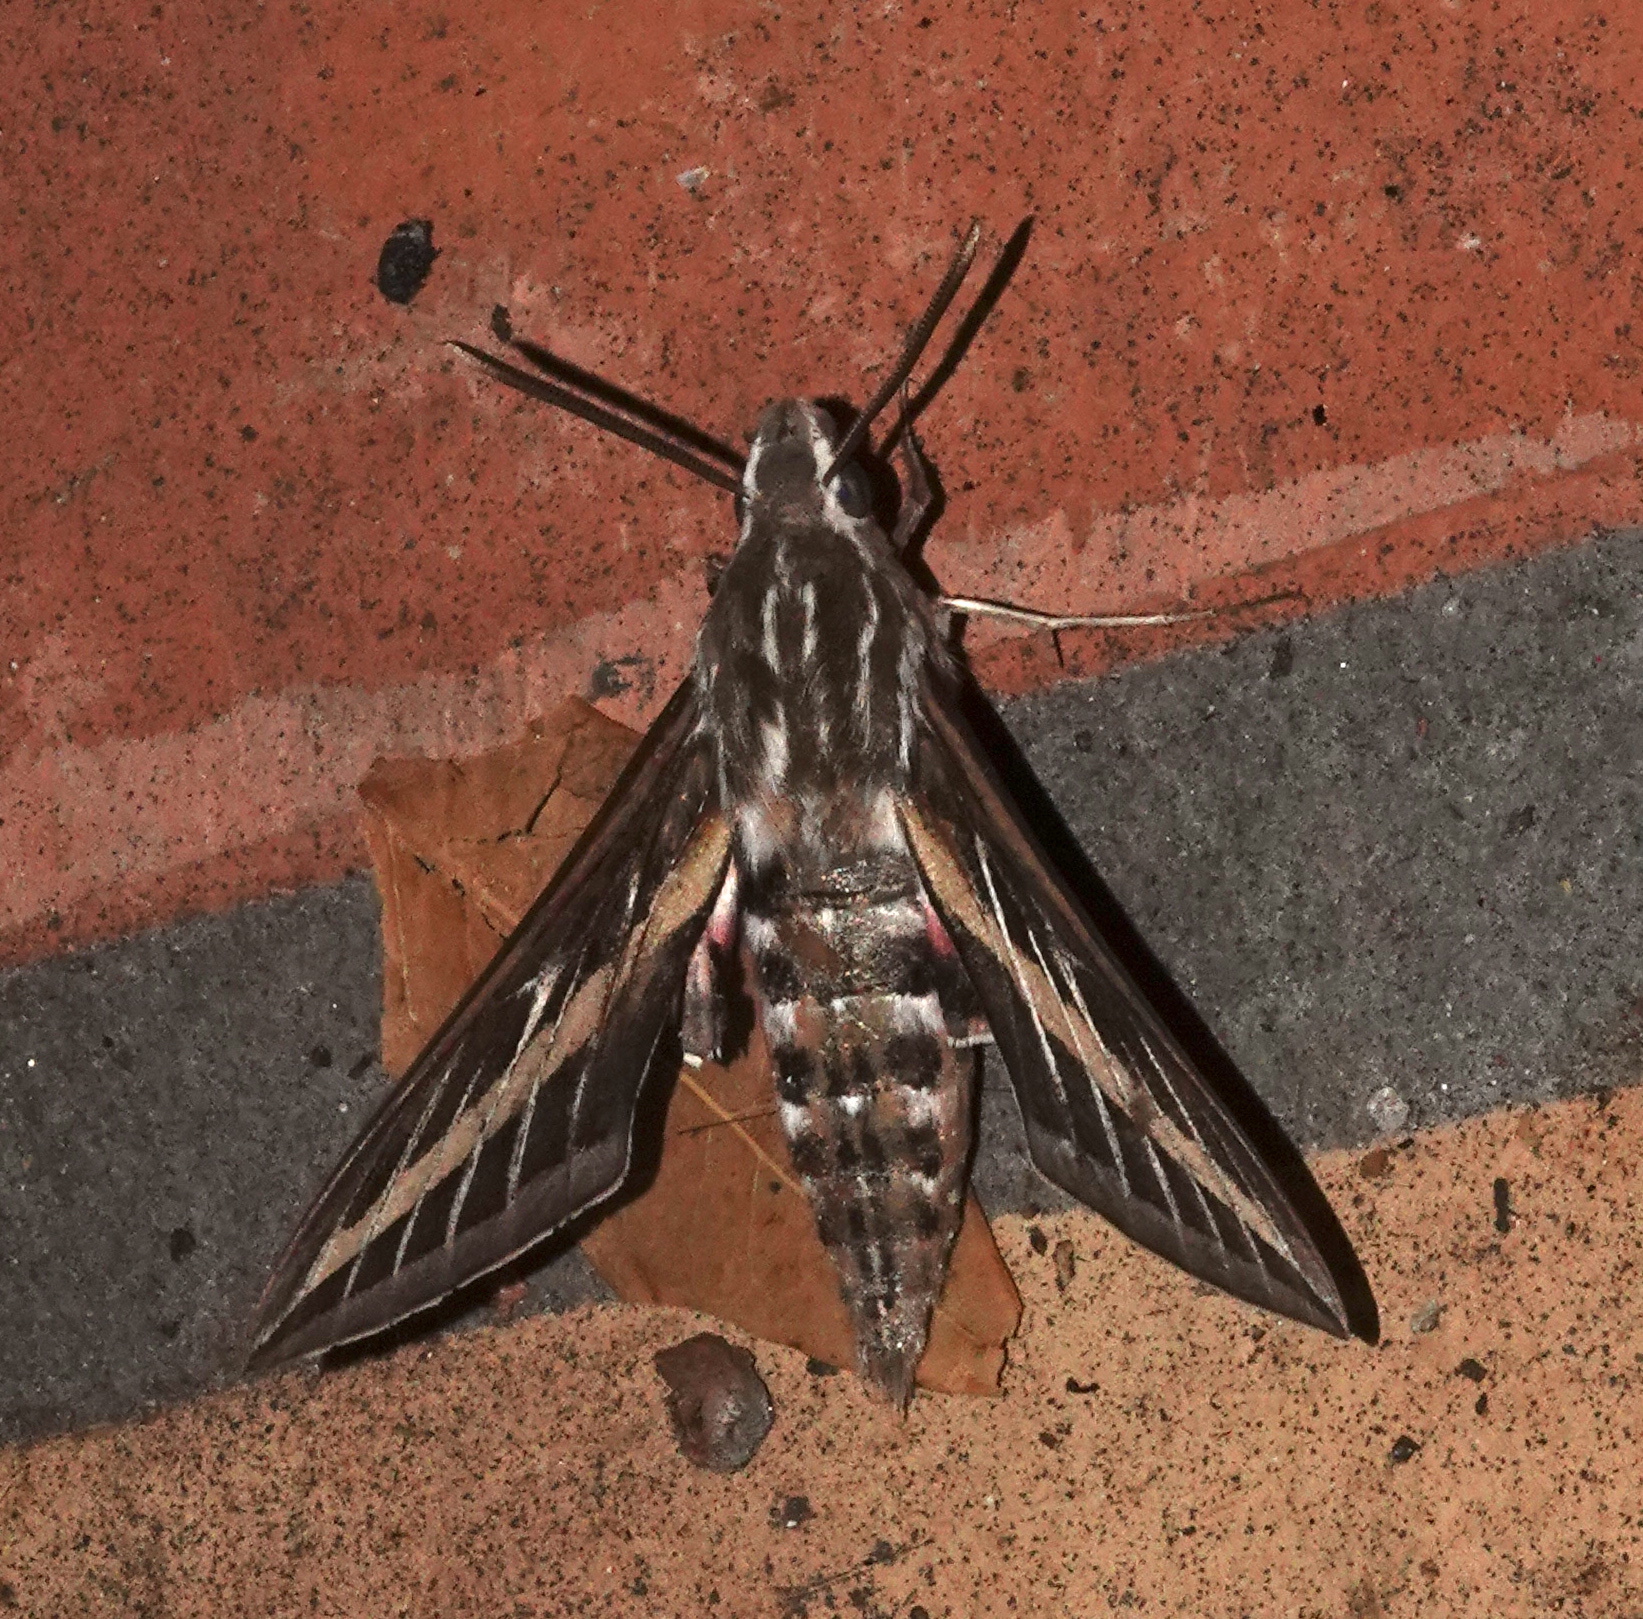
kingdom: Animalia
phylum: Arthropoda
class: Insecta
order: Lepidoptera
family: Sphingidae
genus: Hyles
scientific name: Hyles lineata
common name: White-lined sphinx
